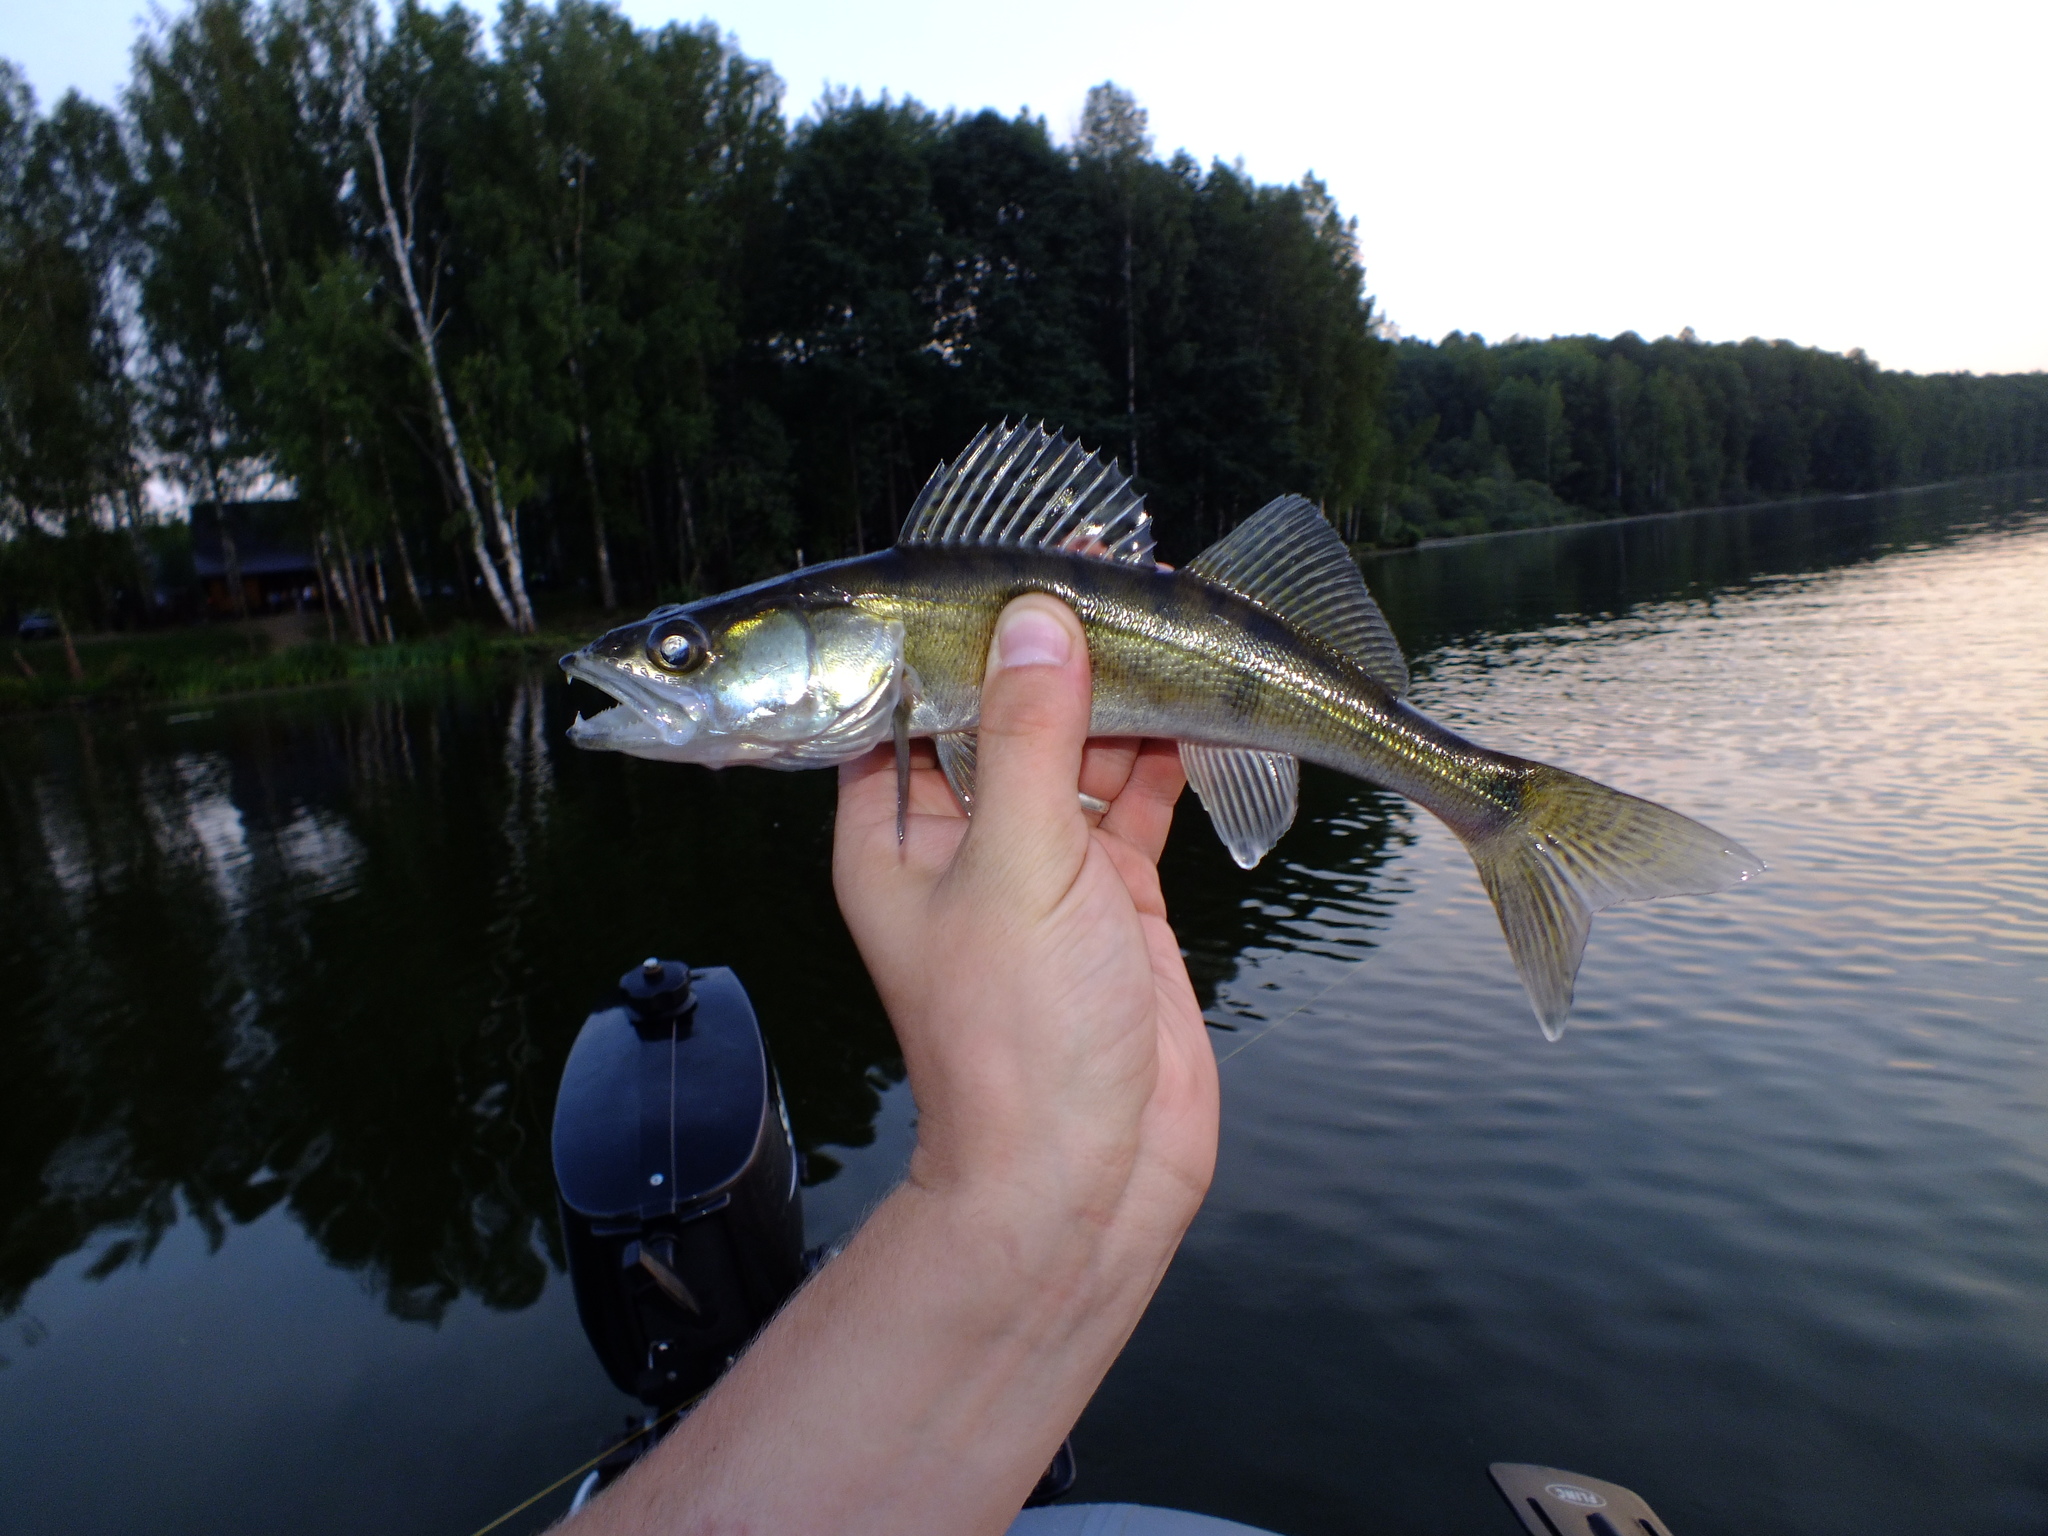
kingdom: Animalia
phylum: Chordata
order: Perciformes
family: Percidae
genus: Sander
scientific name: Sander lucioperca
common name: Pikeperch
